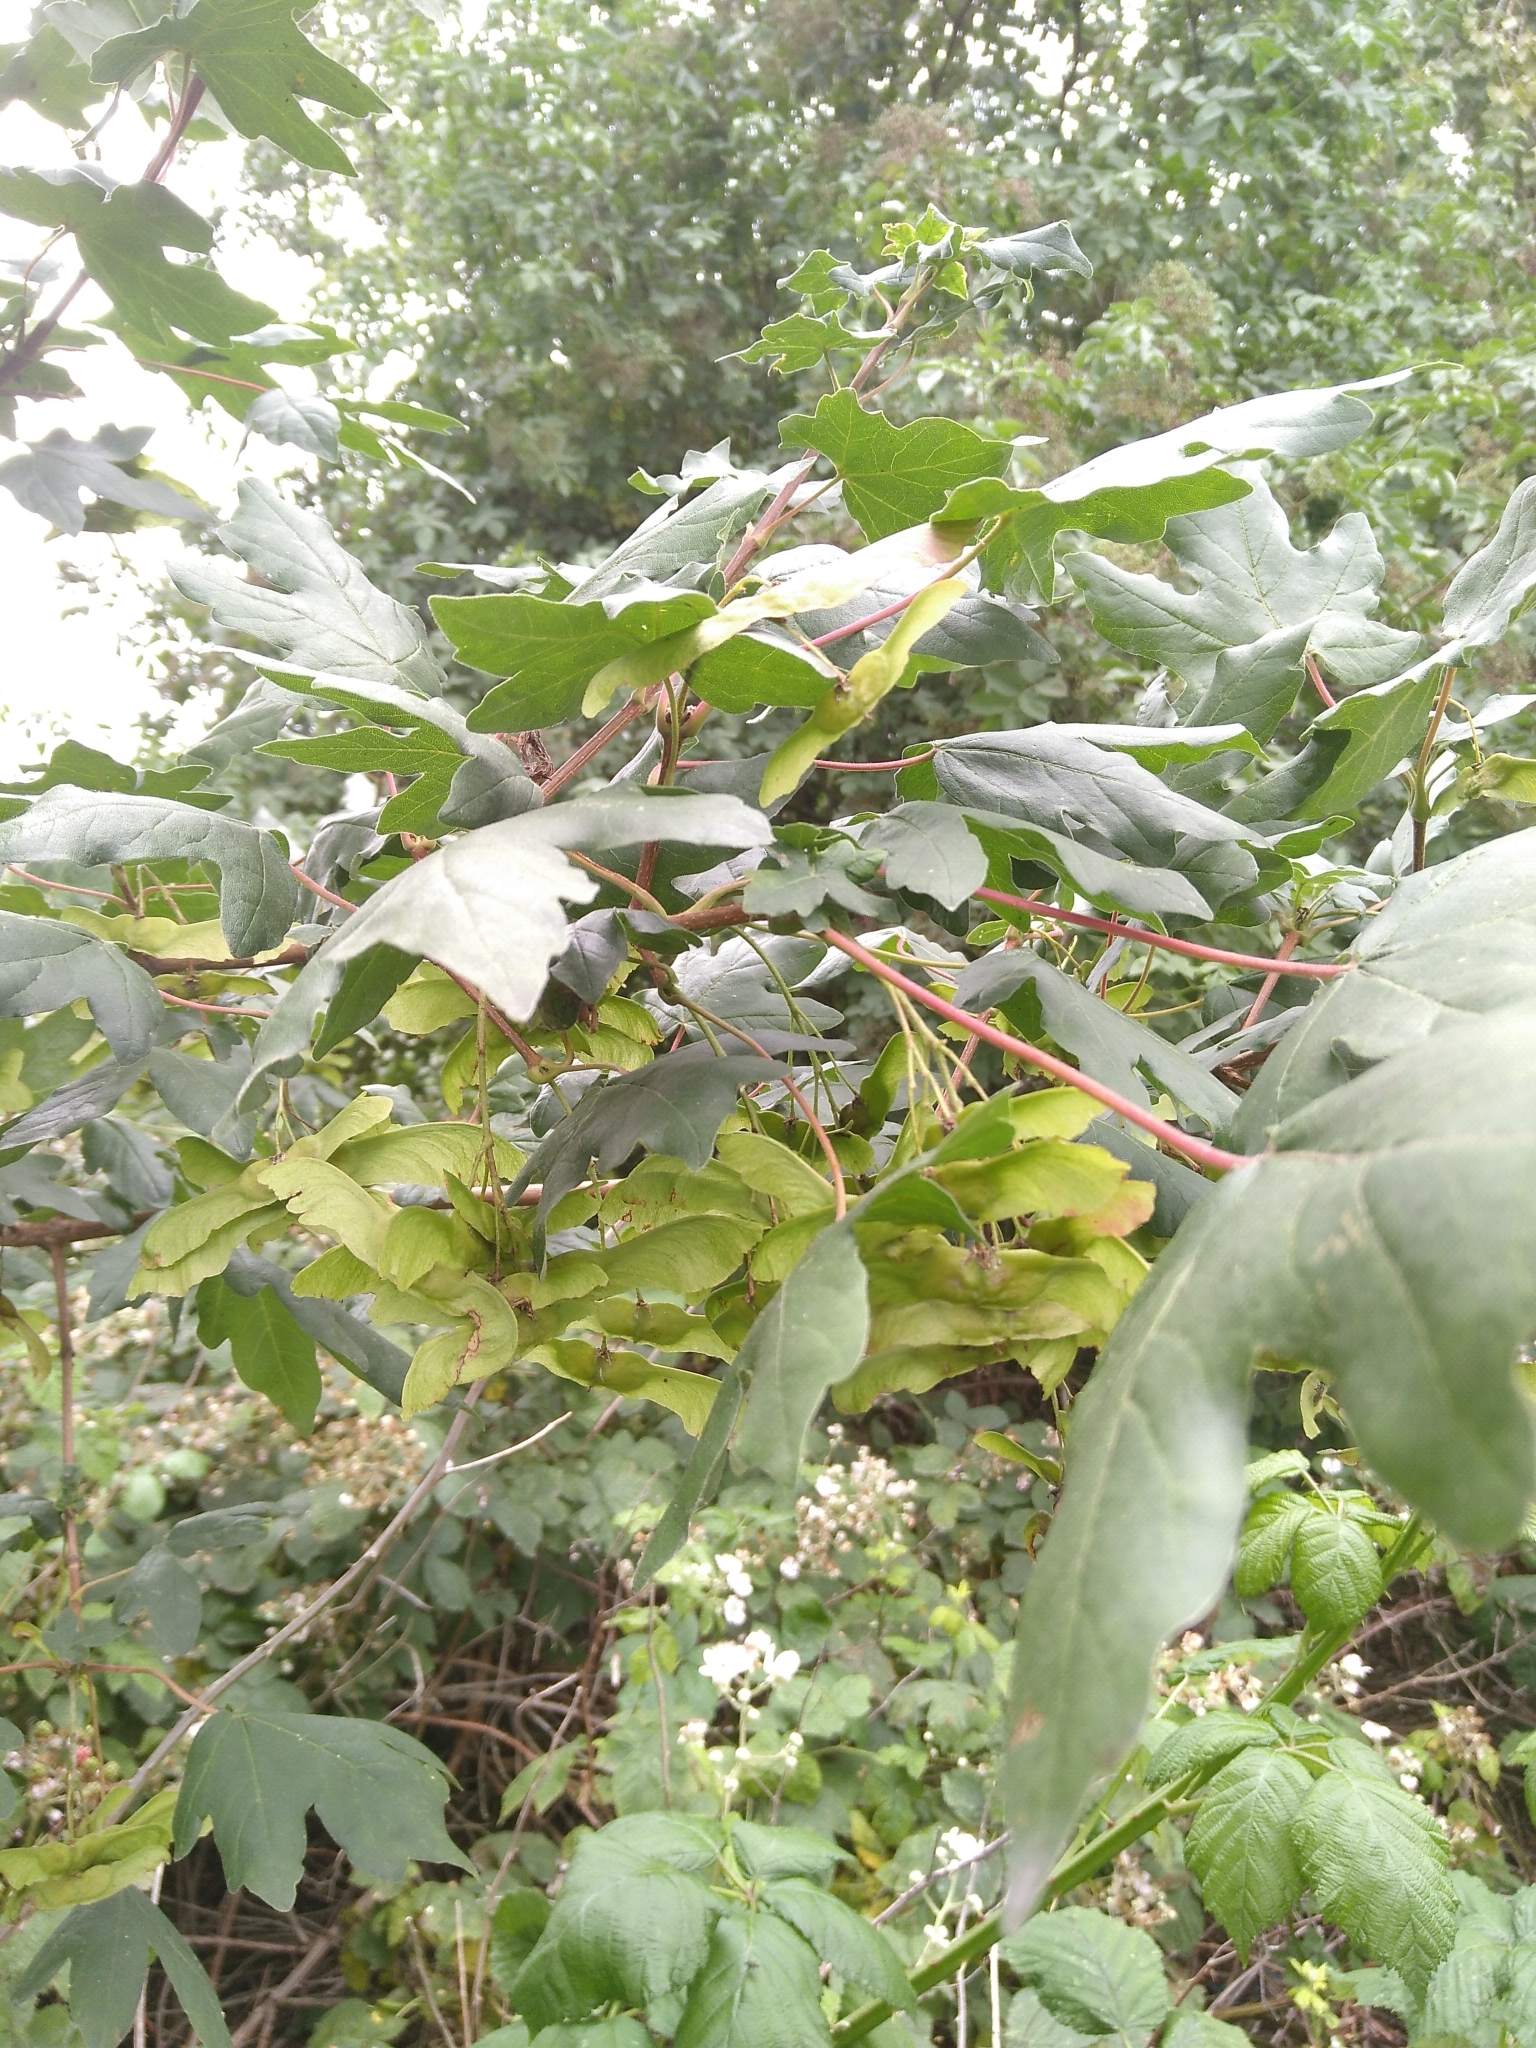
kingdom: Plantae
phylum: Tracheophyta
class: Magnoliopsida
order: Sapindales
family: Sapindaceae
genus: Acer
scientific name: Acer campestre
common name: Field maple
